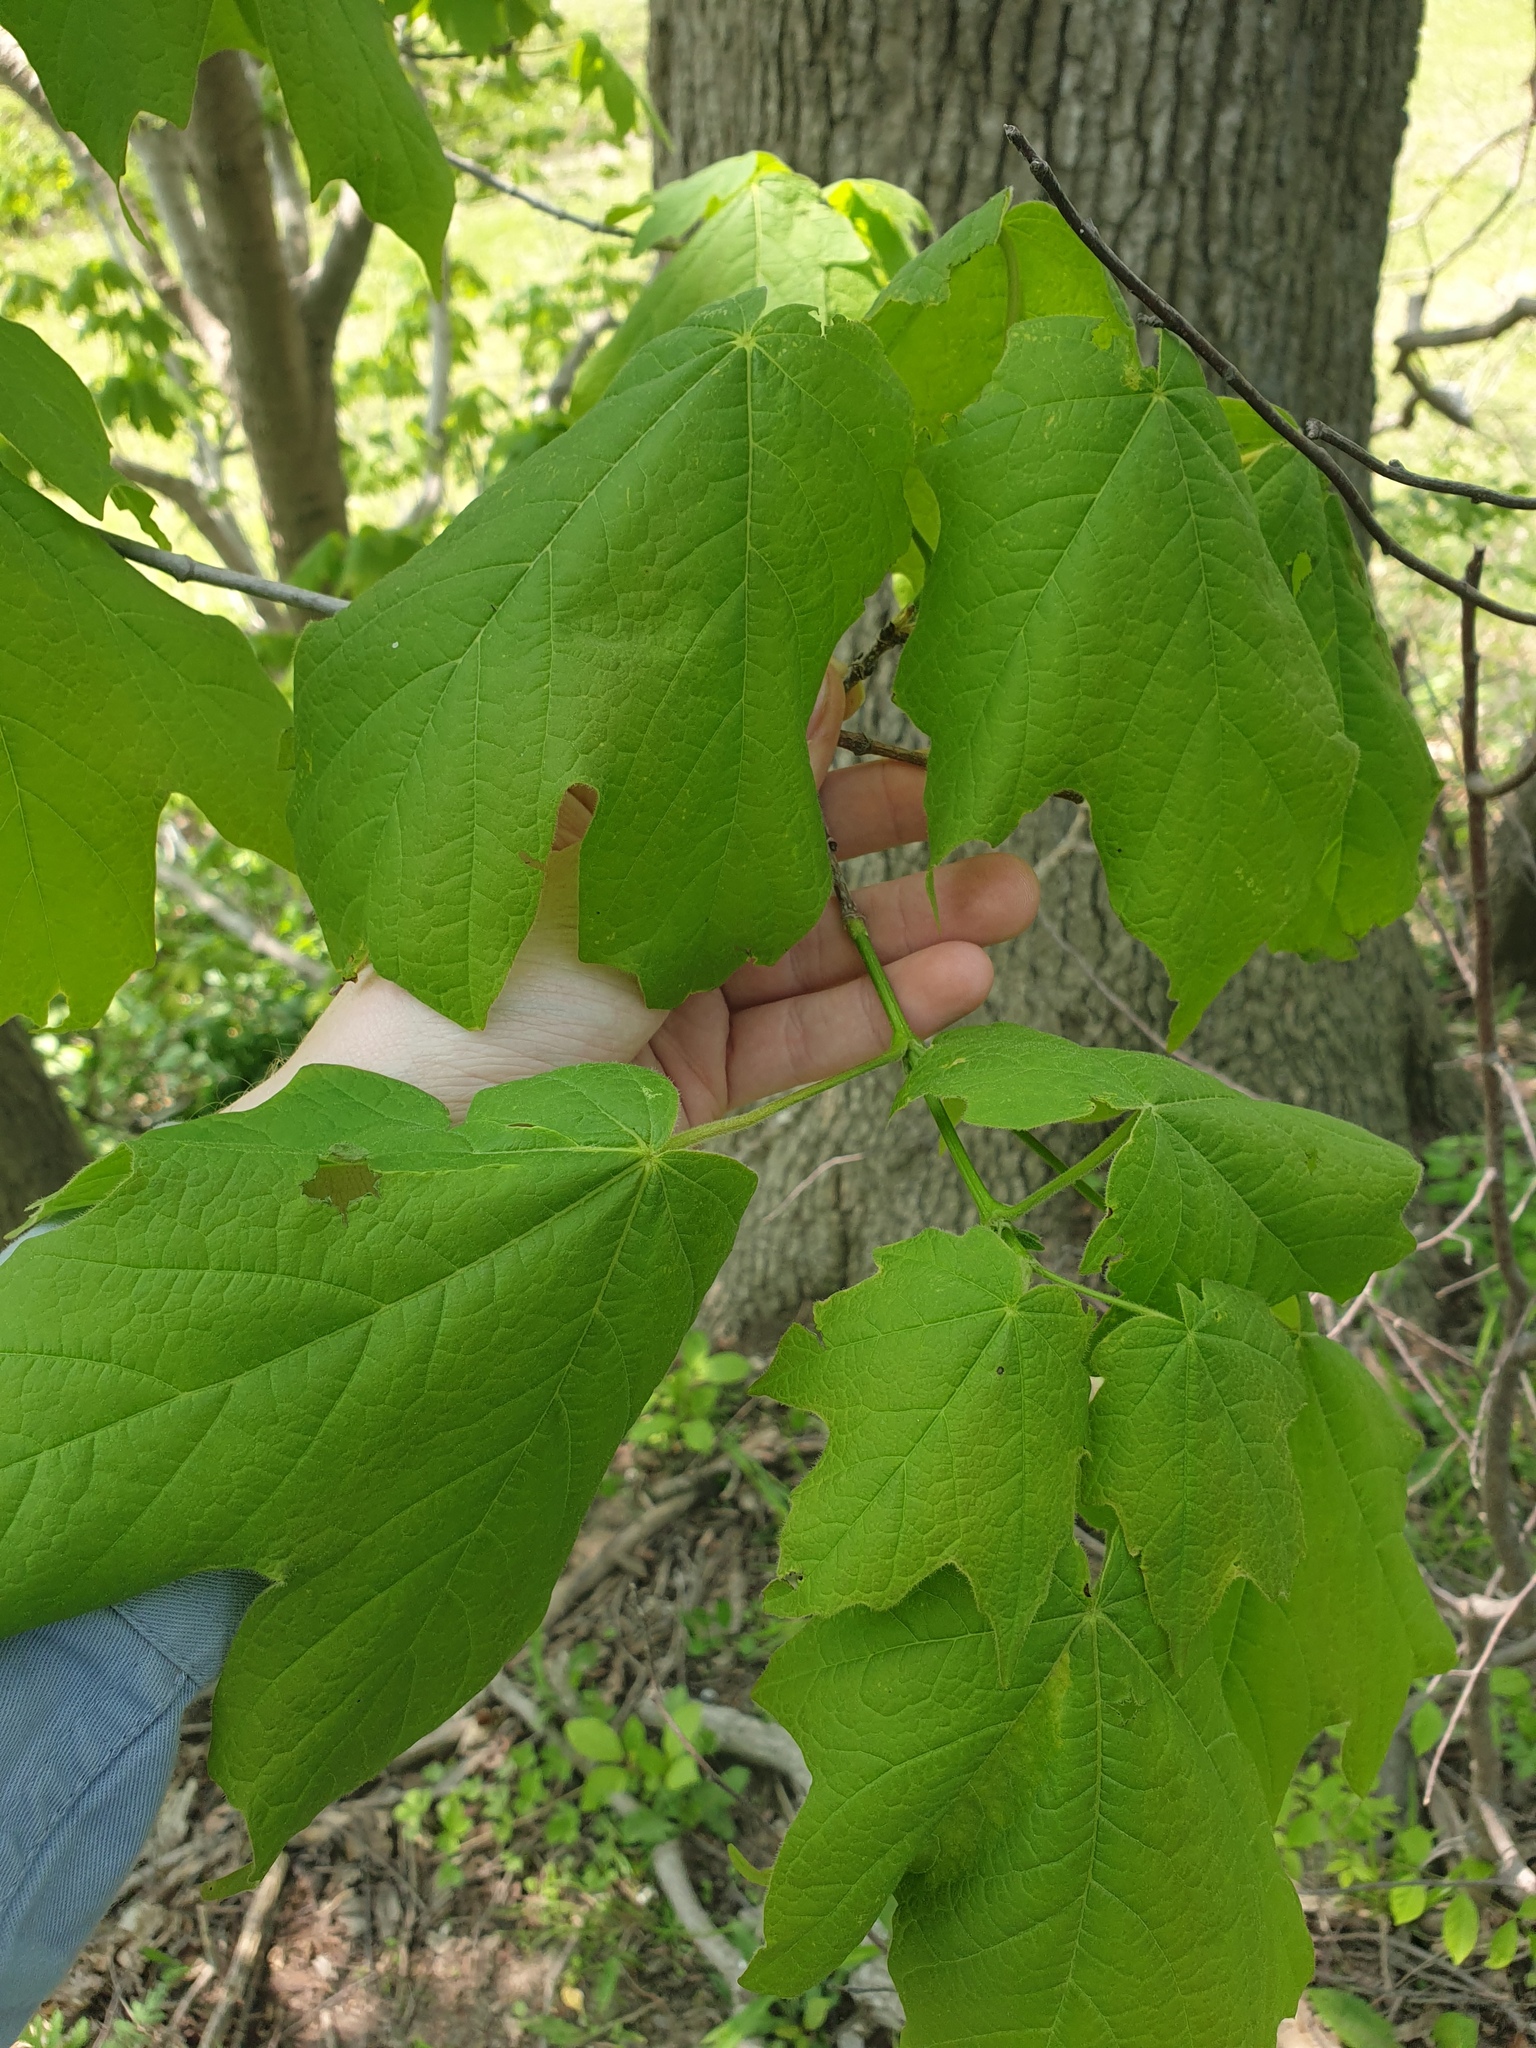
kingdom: Plantae
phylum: Tracheophyta
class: Magnoliopsida
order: Sapindales
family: Sapindaceae
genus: Acer
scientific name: Acer nigrum
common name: Black maple
